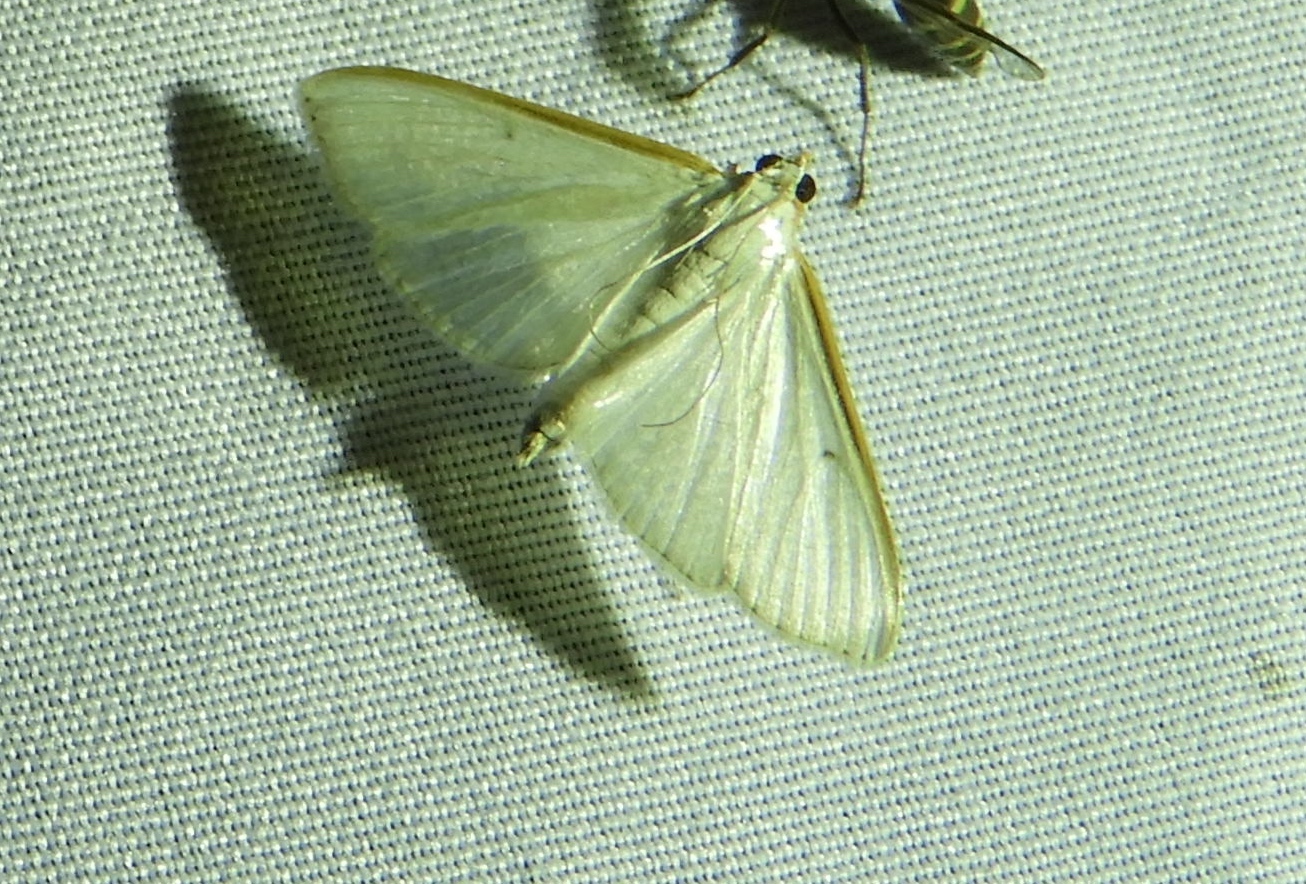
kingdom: Animalia
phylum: Arthropoda
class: Insecta
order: Lepidoptera
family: Crambidae
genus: Diaphania
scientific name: Diaphania costata
